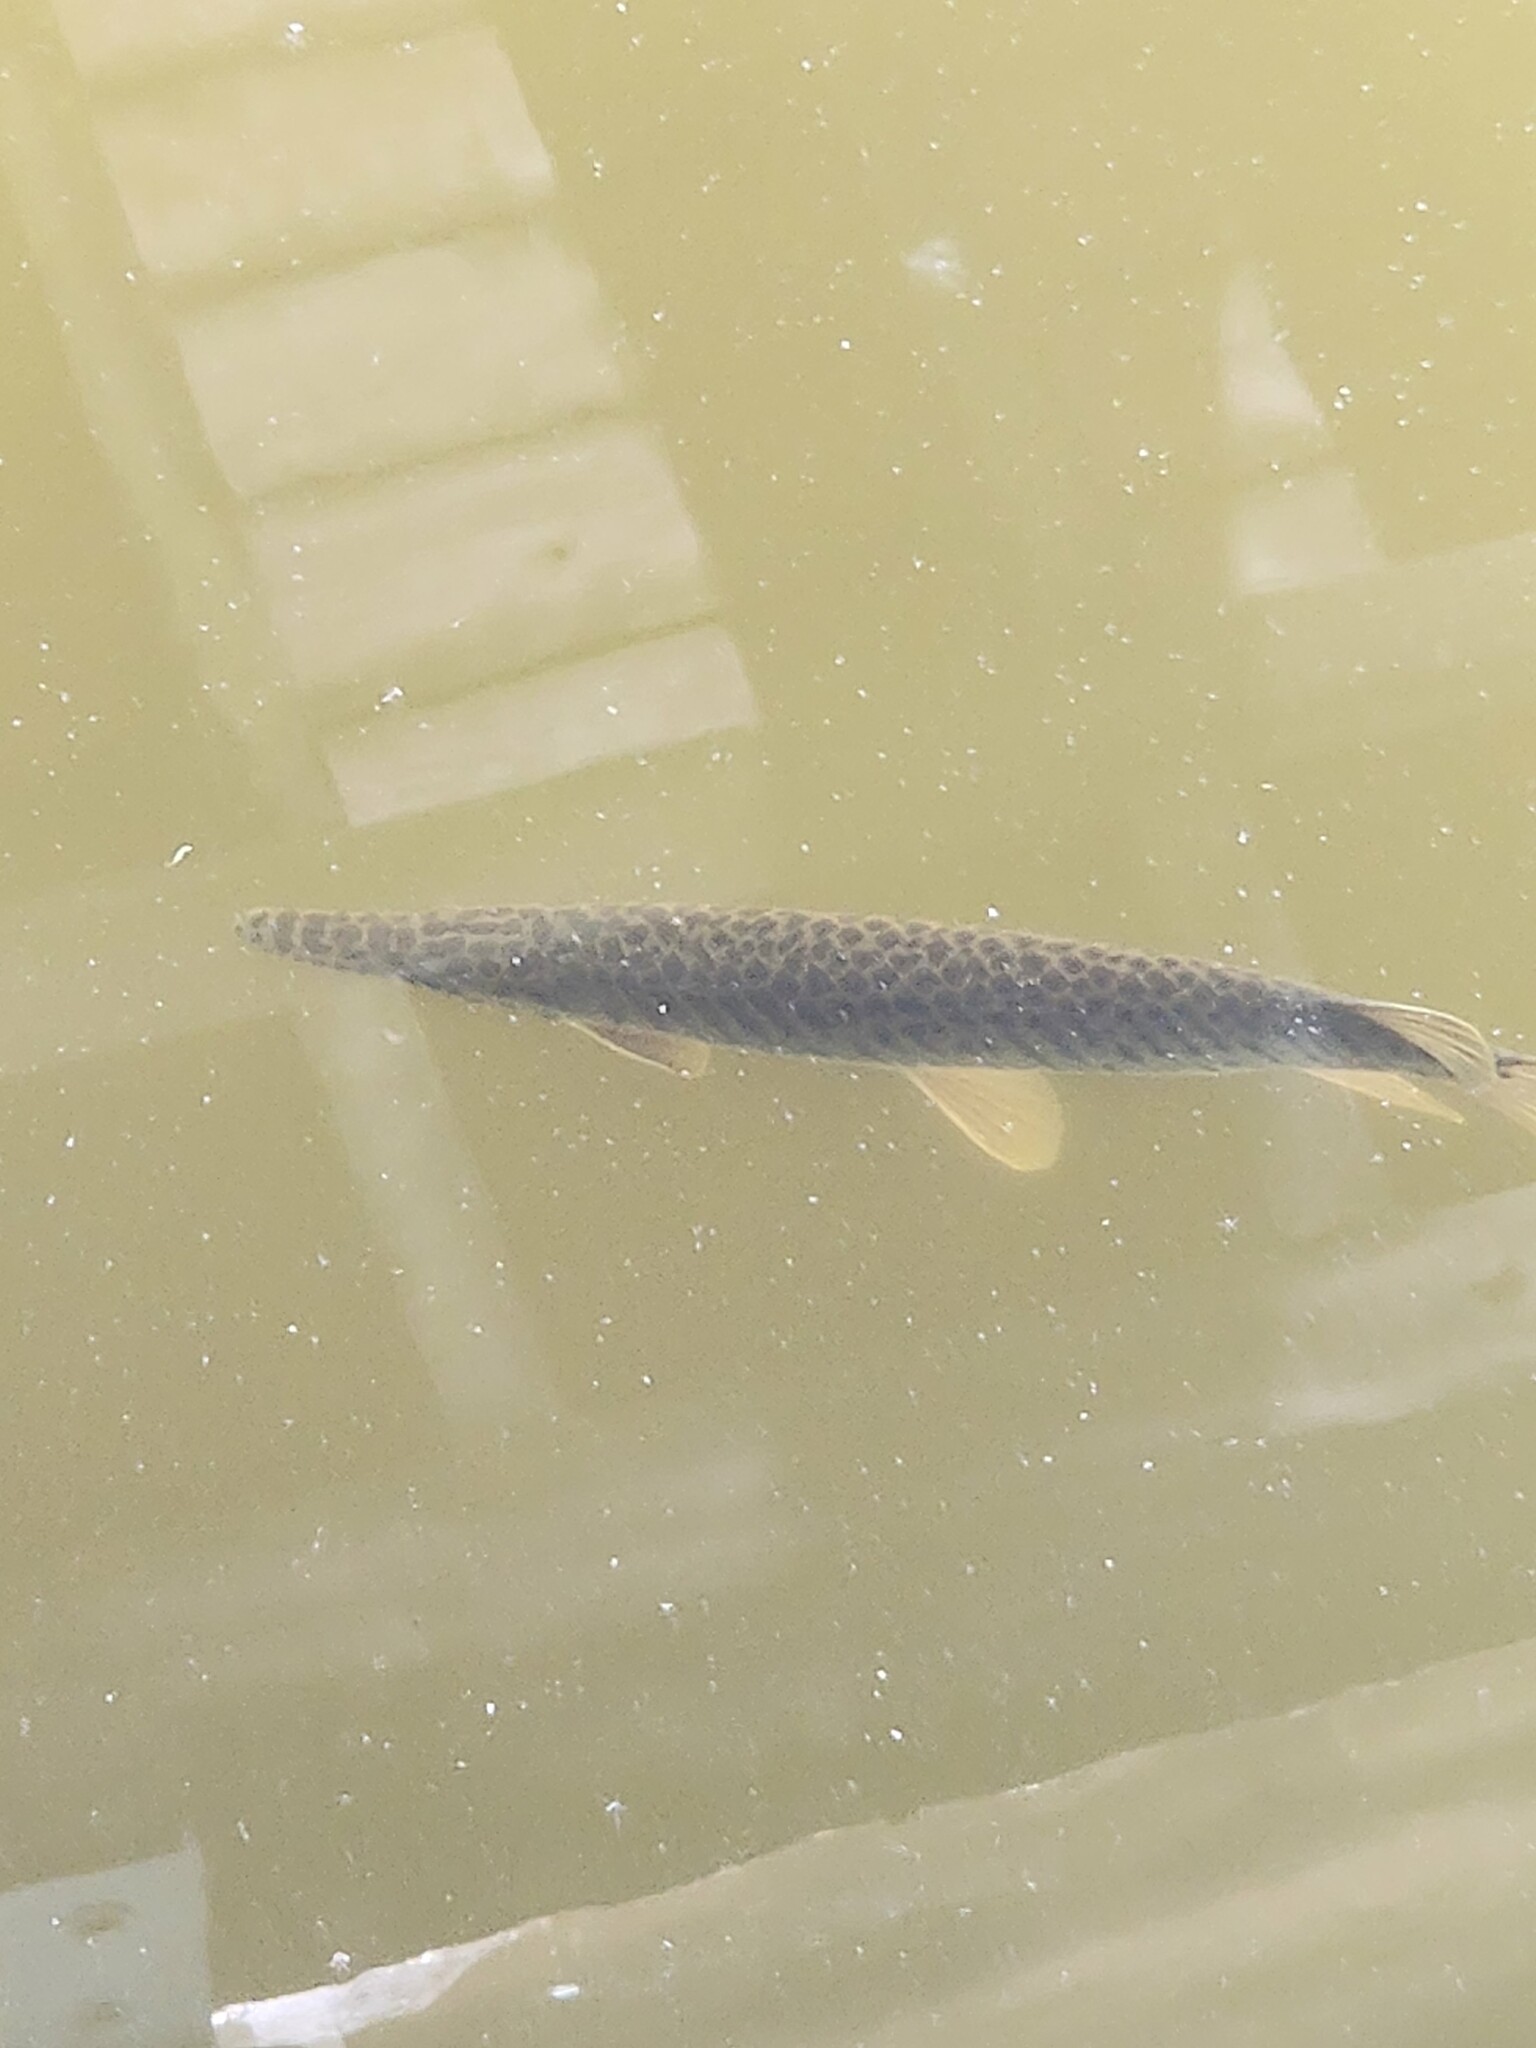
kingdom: Animalia
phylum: Chordata
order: Lepisosteiformes
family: Lepisosteidae
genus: Lepisosteus
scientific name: Lepisosteus platyrhincus
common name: Florida gar
